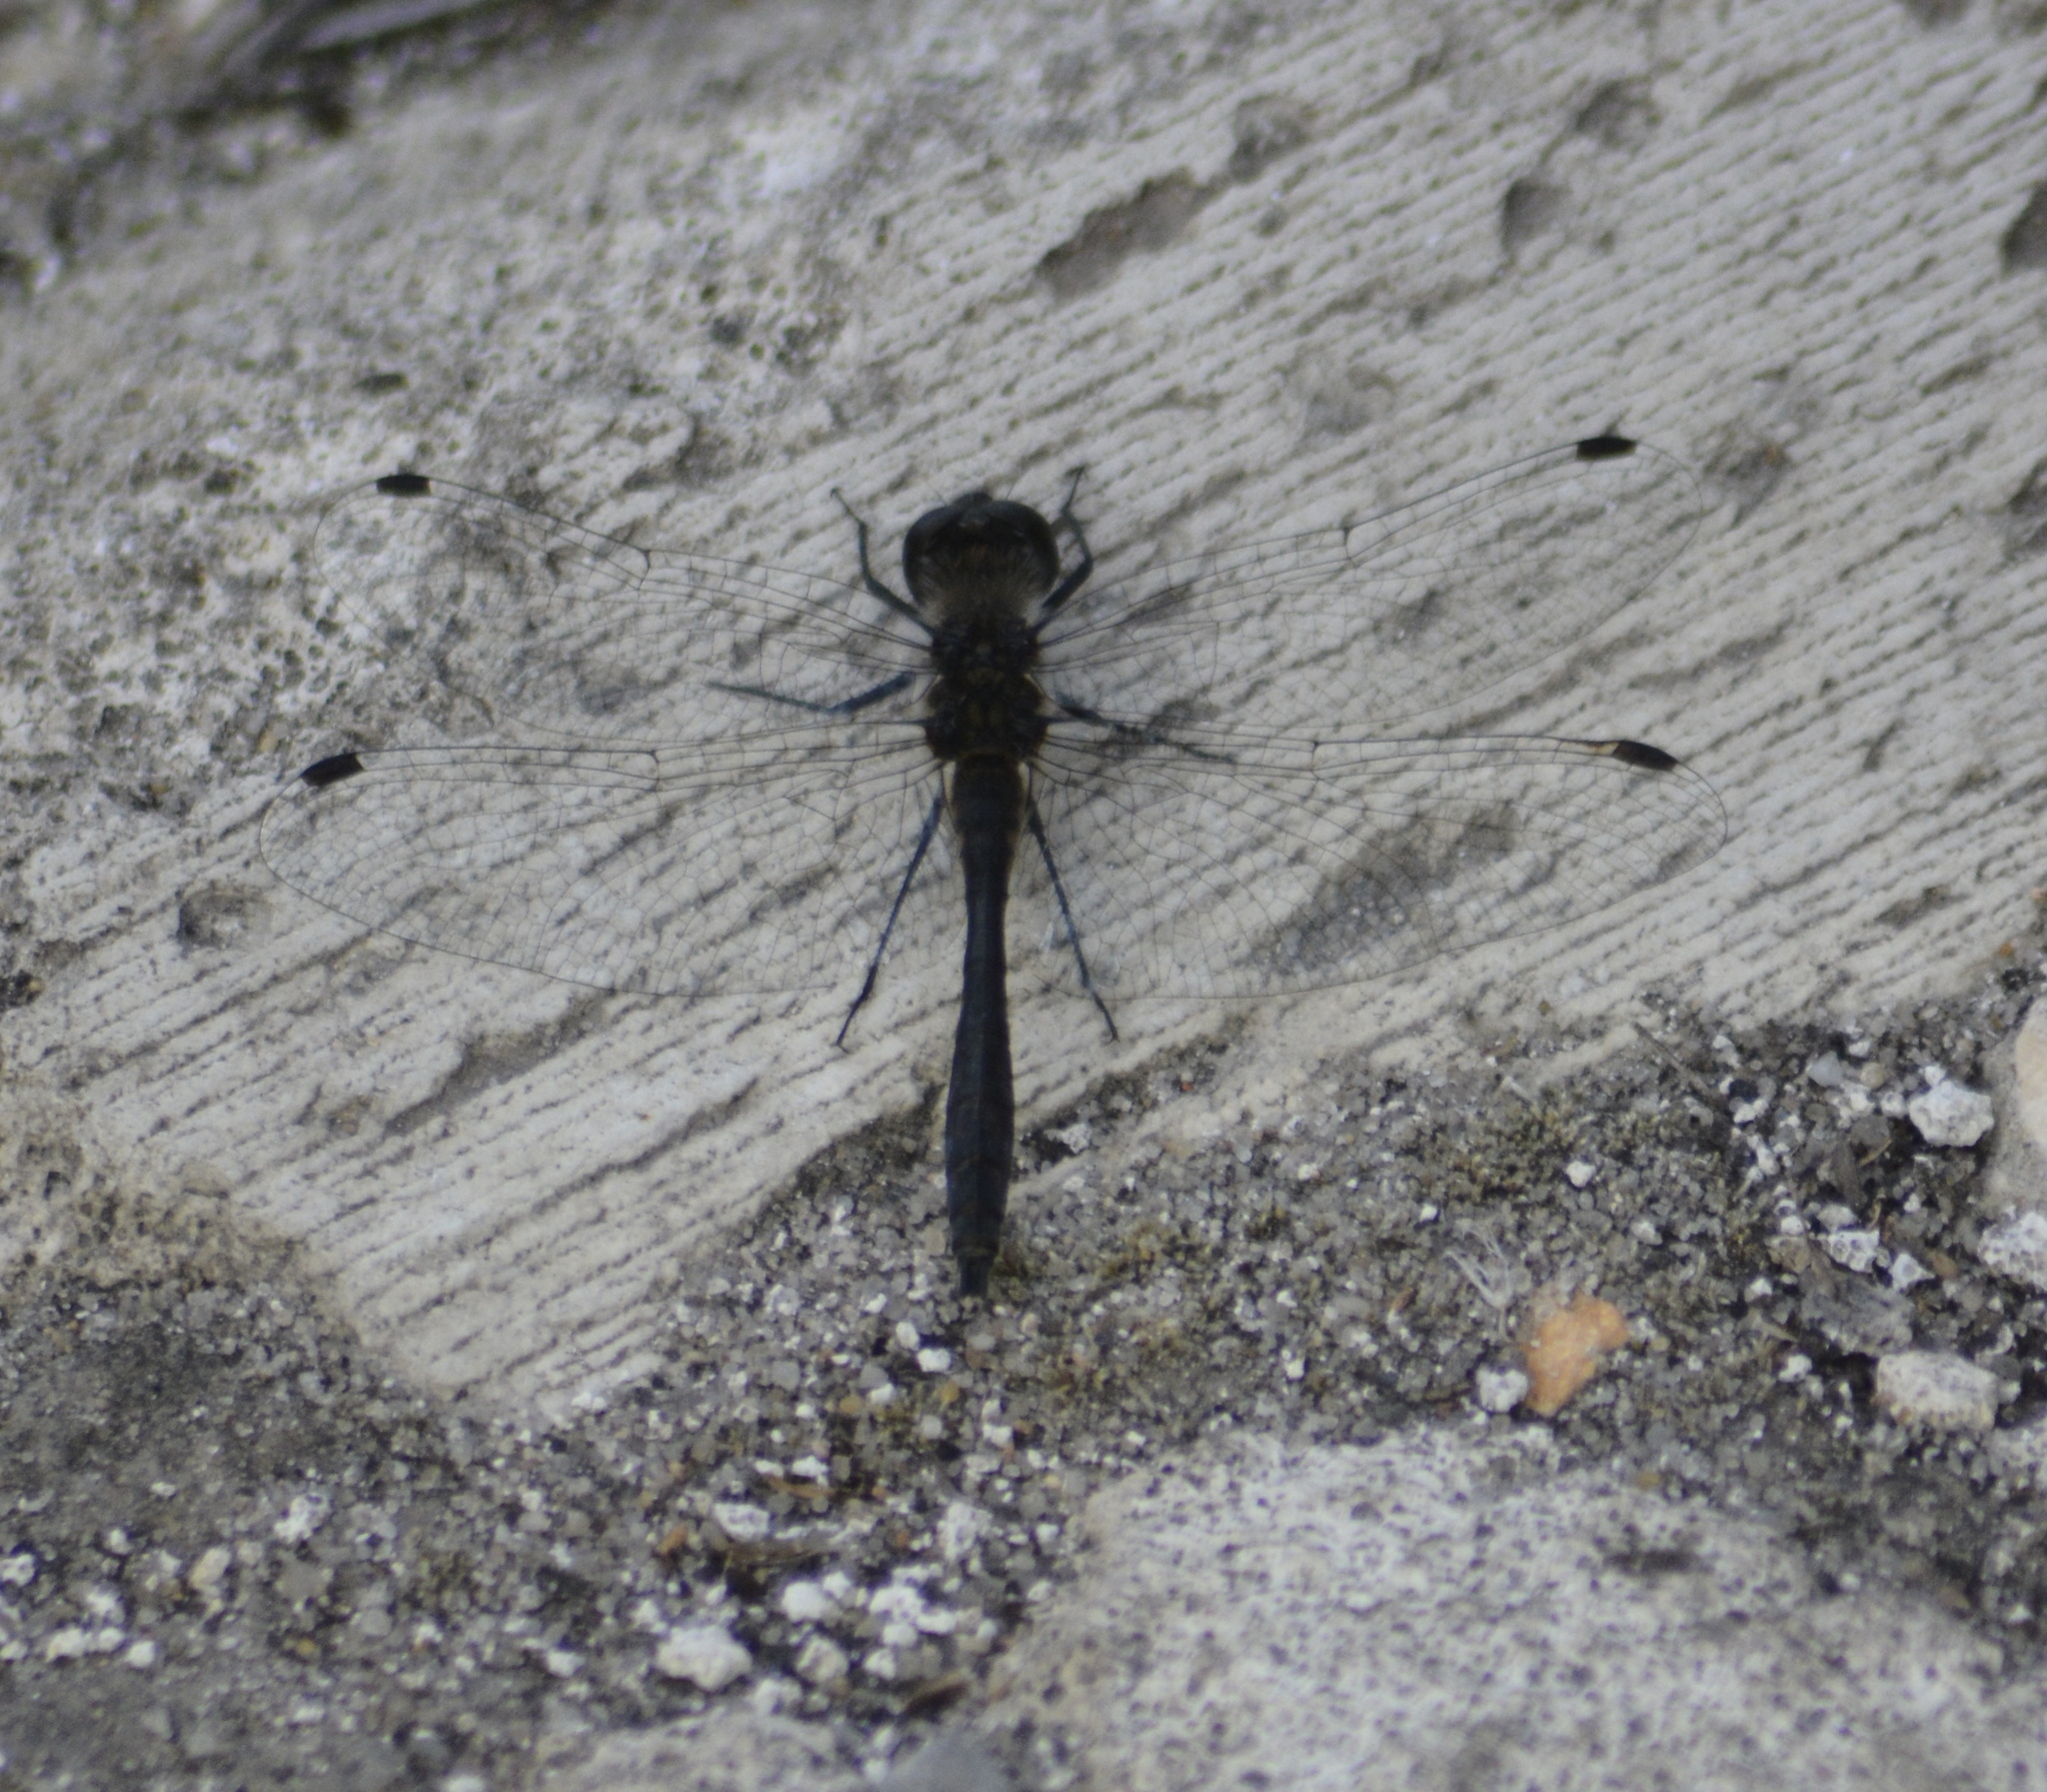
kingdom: Animalia
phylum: Arthropoda
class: Insecta
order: Odonata
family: Libellulidae
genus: Sympetrum
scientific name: Sympetrum danae
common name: Black darter
